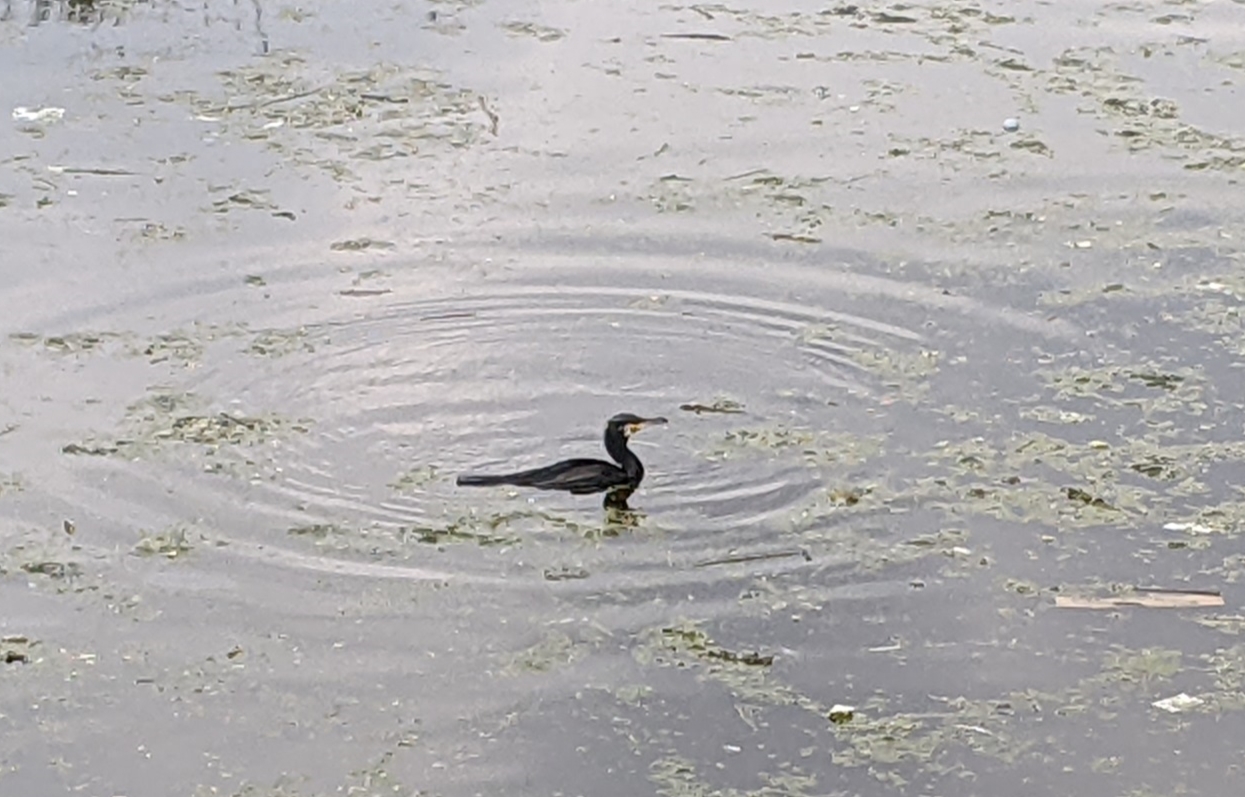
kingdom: Animalia
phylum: Chordata
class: Aves
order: Suliformes
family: Phalacrocoracidae
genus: Phalacrocorax
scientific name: Phalacrocorax carbo
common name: Great cormorant
